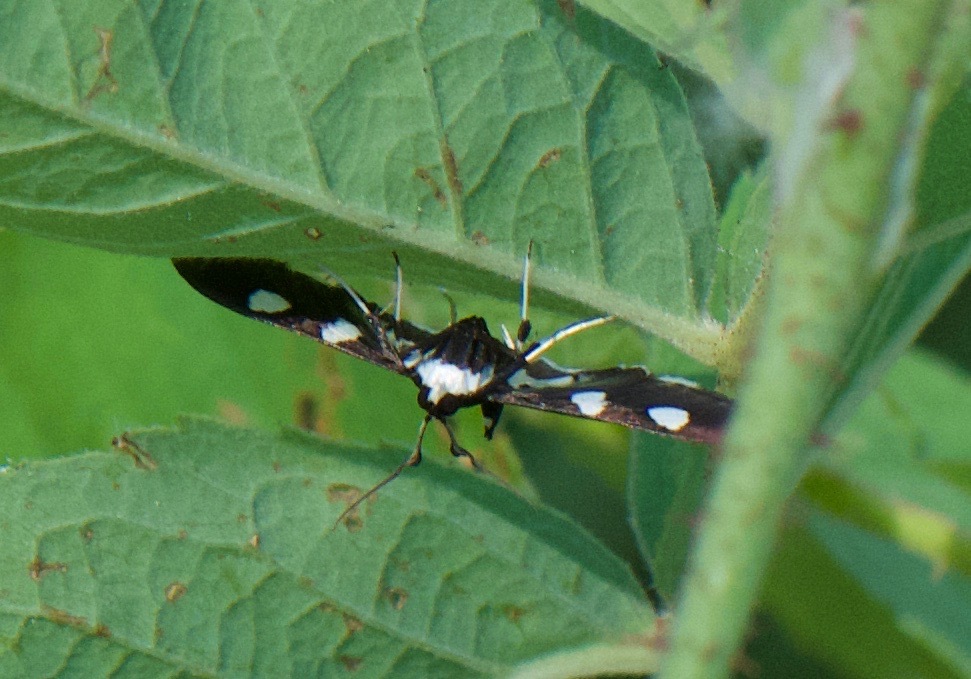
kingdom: Animalia
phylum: Arthropoda
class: Insecta
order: Lepidoptera
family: Crambidae
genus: Desmia
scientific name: Desmia funeralis
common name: Grape leaf folder moth
